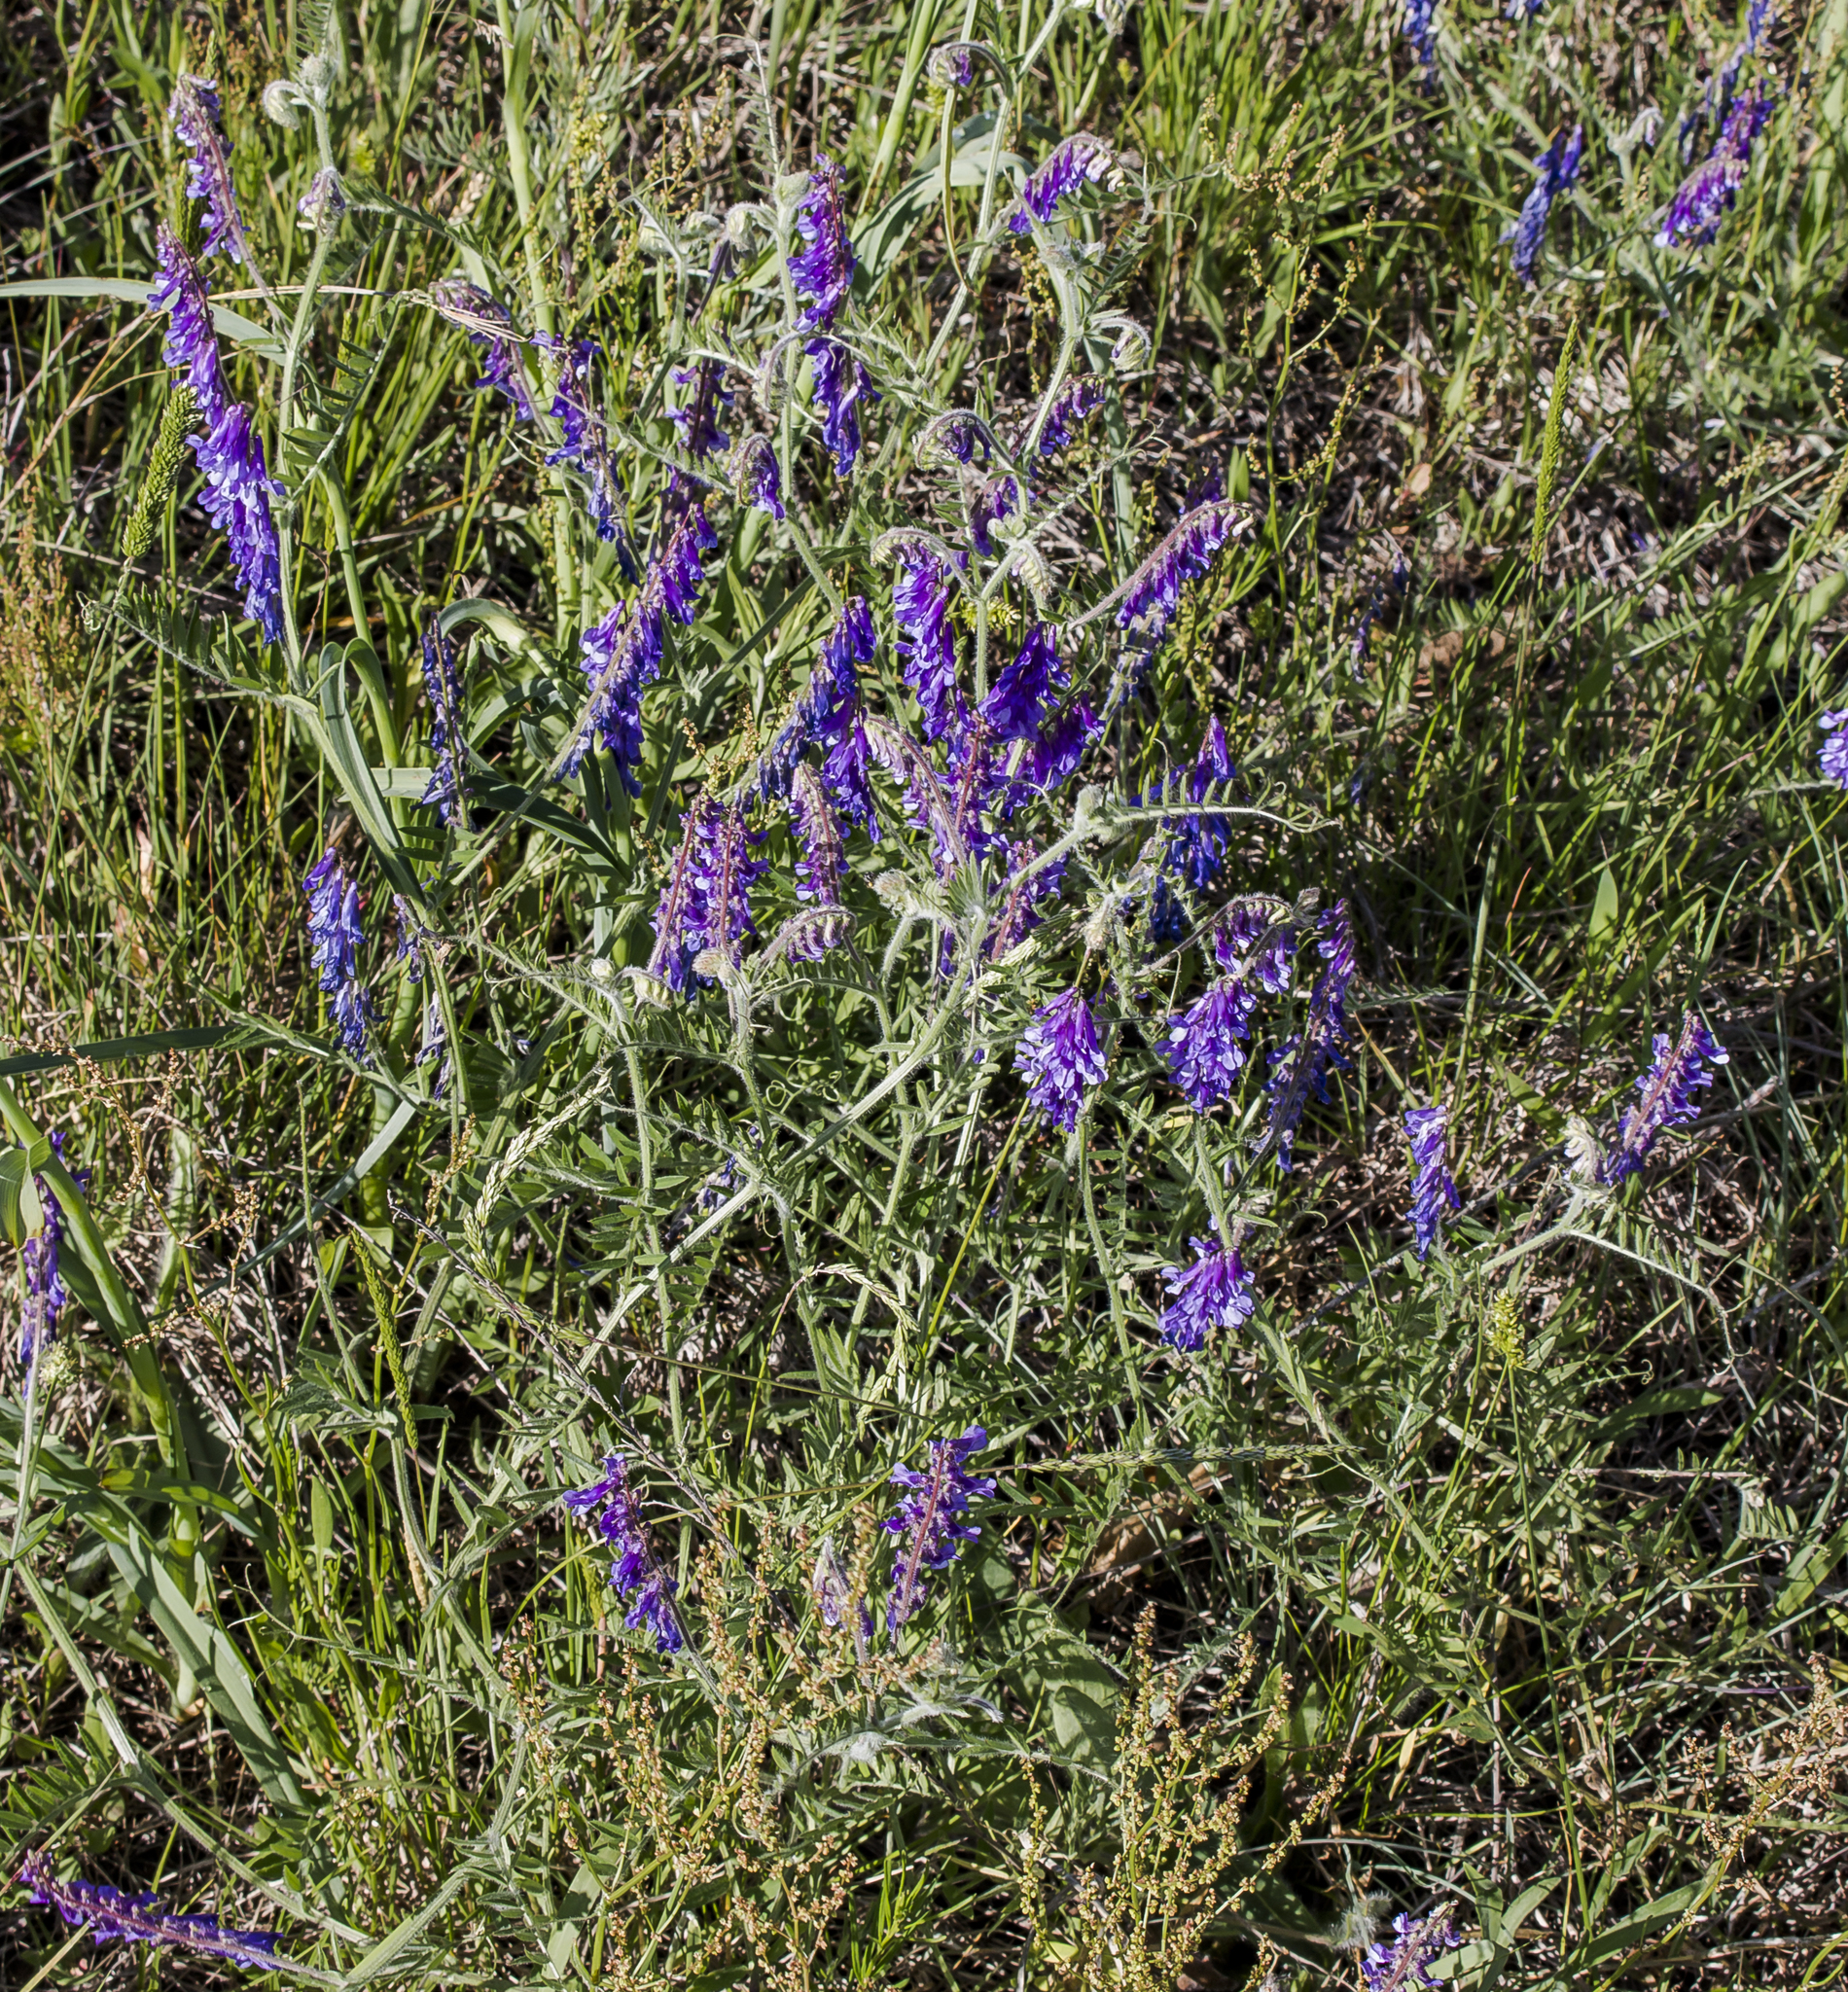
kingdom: Plantae
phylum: Tracheophyta
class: Magnoliopsida
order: Fabales
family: Fabaceae
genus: Vicia
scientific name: Vicia villosa
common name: Fodder vetch
